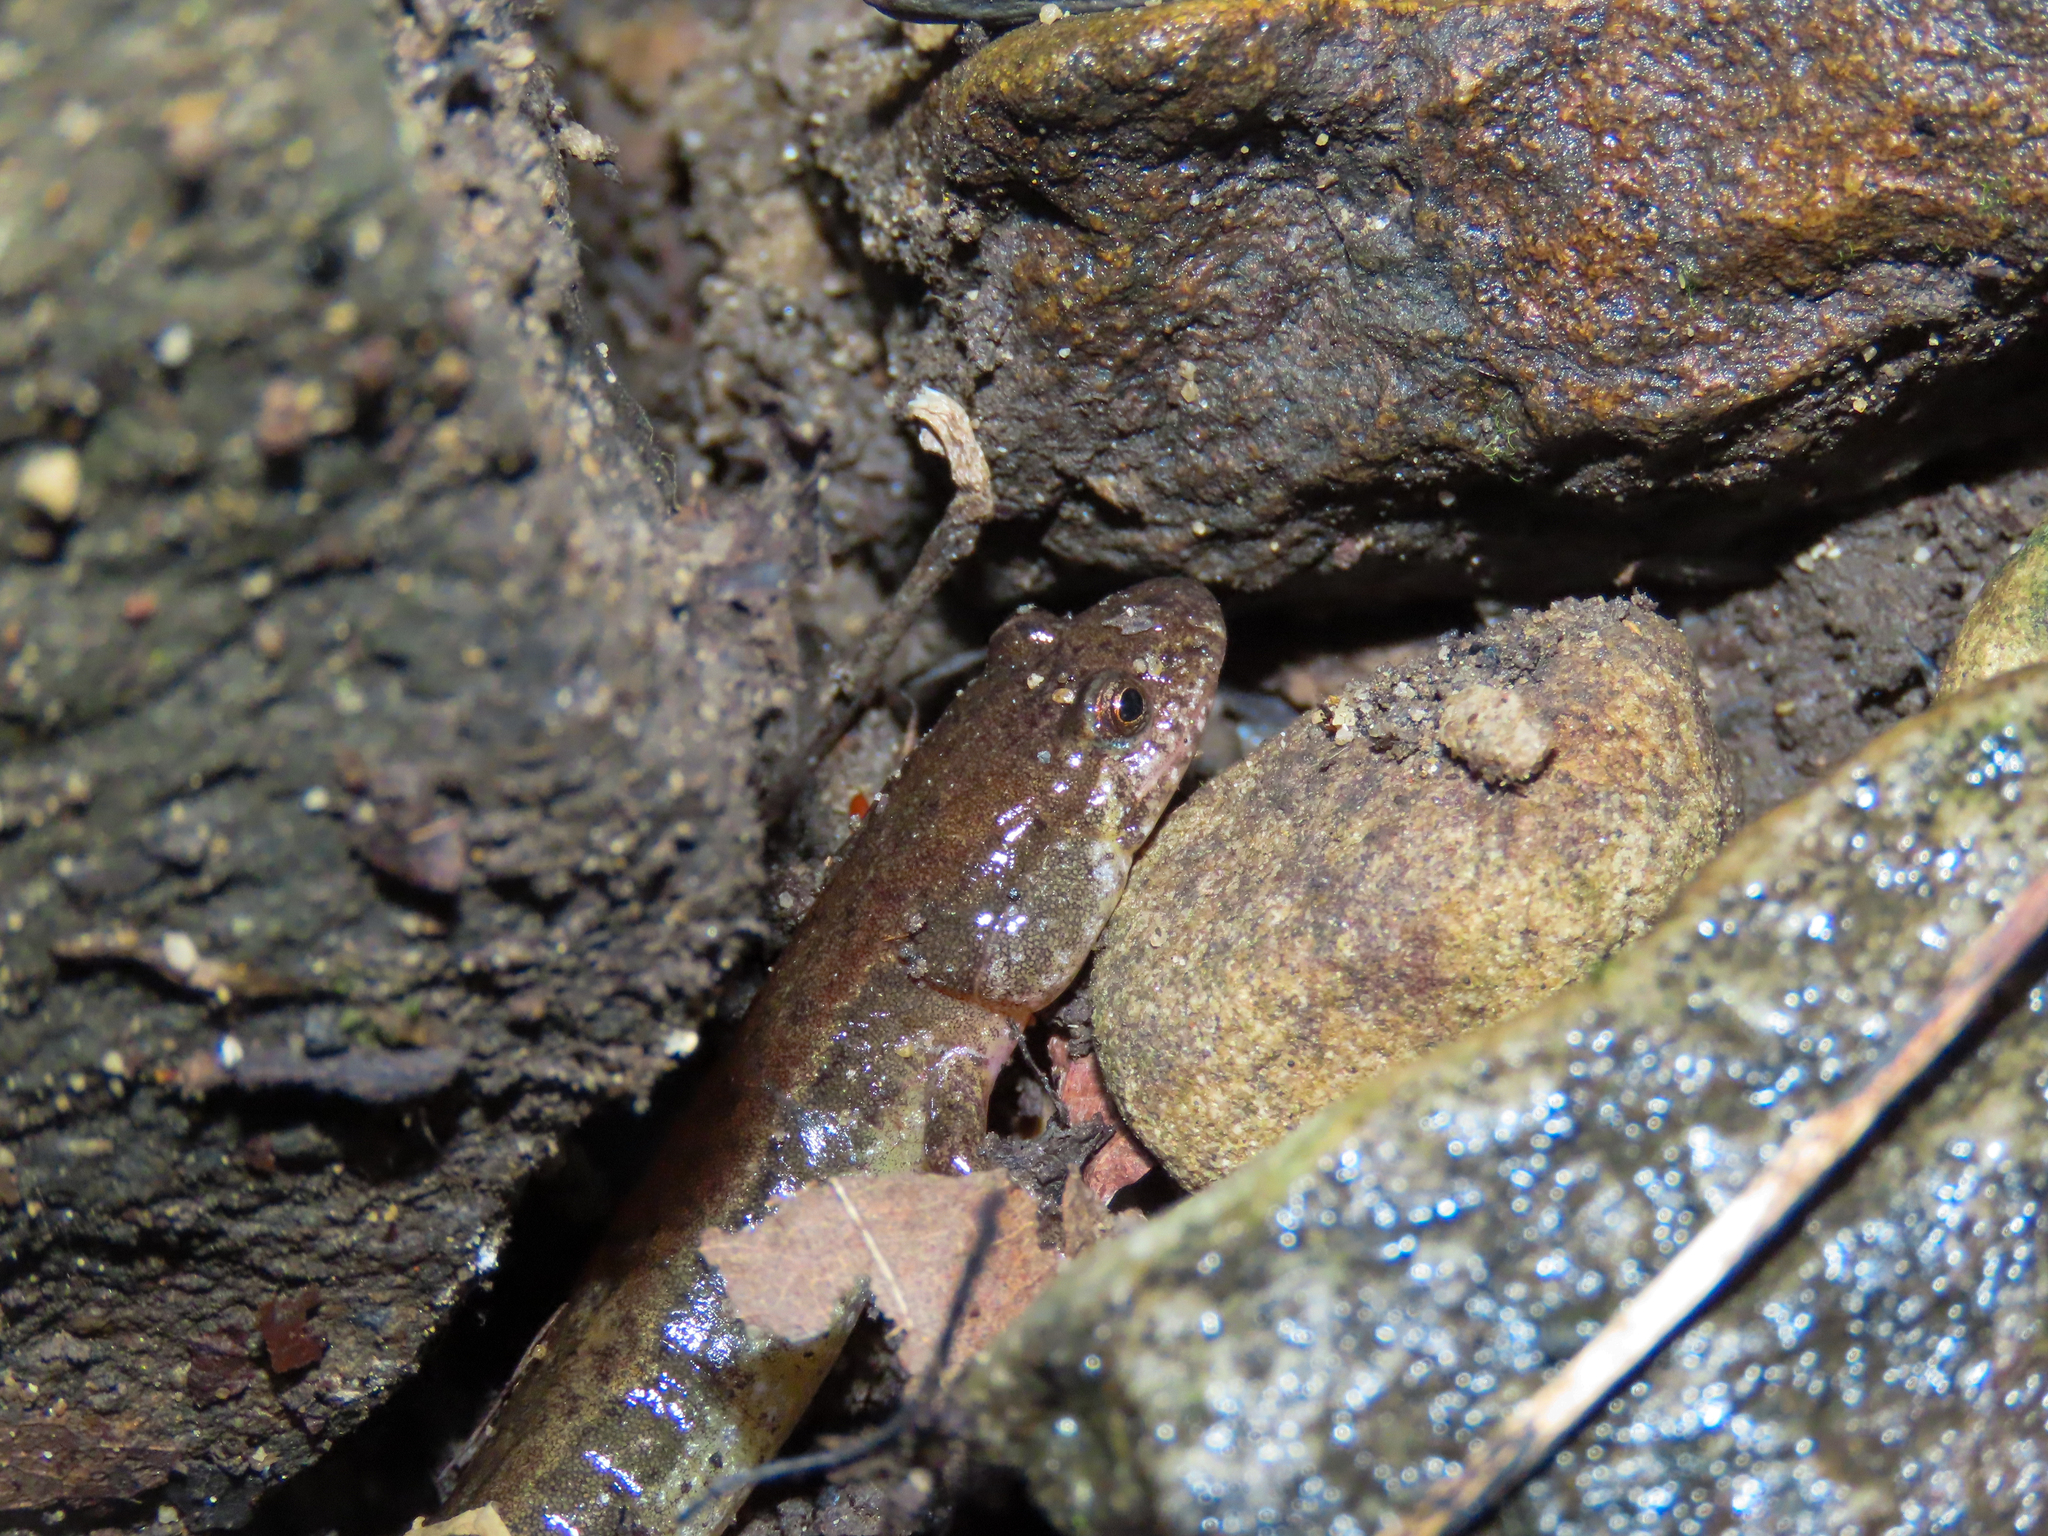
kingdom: Animalia
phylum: Chordata
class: Amphibia
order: Caudata
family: Plethodontidae
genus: Desmognathus
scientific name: Desmognathus fuscus
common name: Northern dusky salamander
